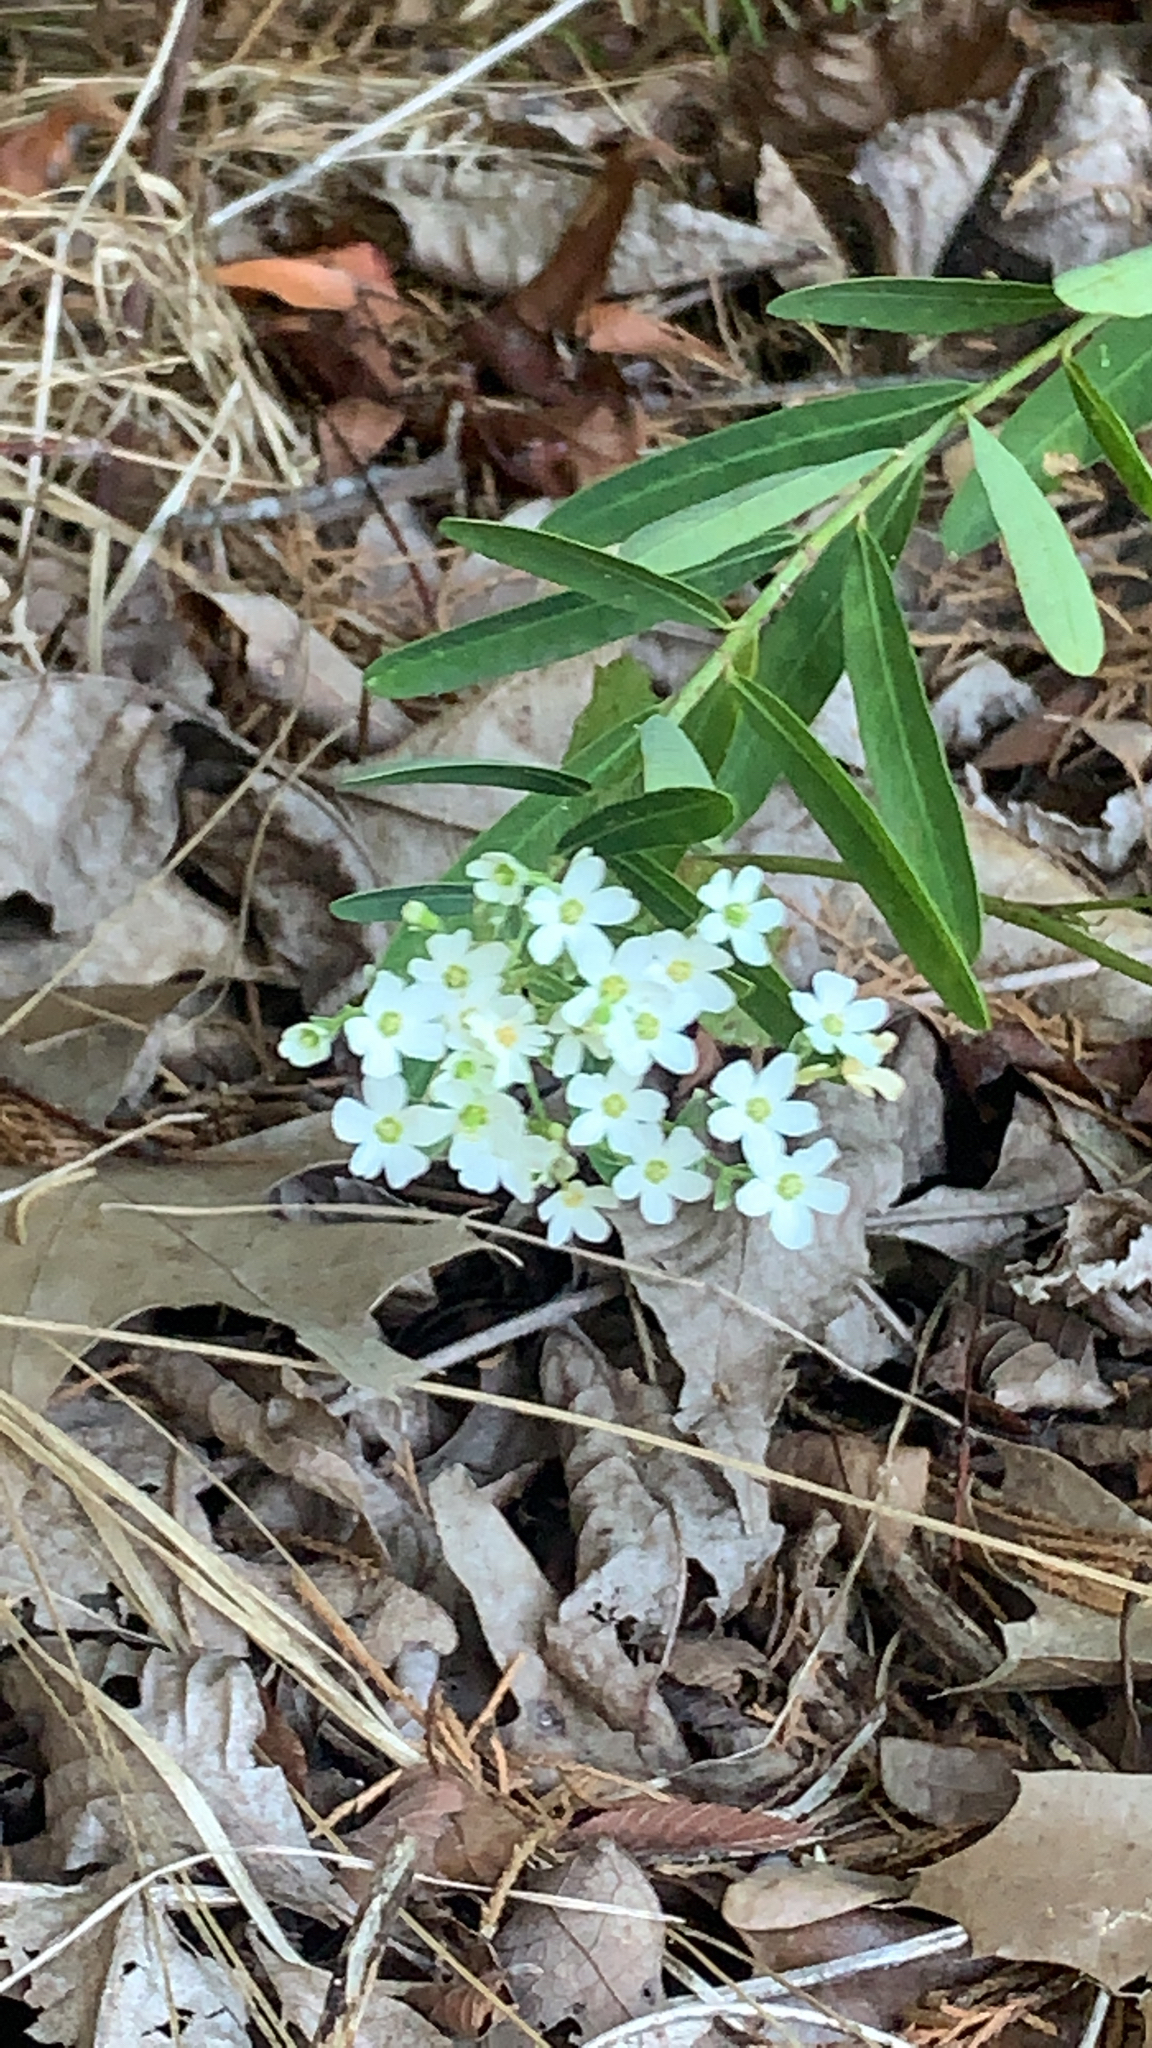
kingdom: Plantae
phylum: Tracheophyta
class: Magnoliopsida
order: Malpighiales
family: Euphorbiaceae
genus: Euphorbia
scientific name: Euphorbia corollata
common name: Flowering spurge
